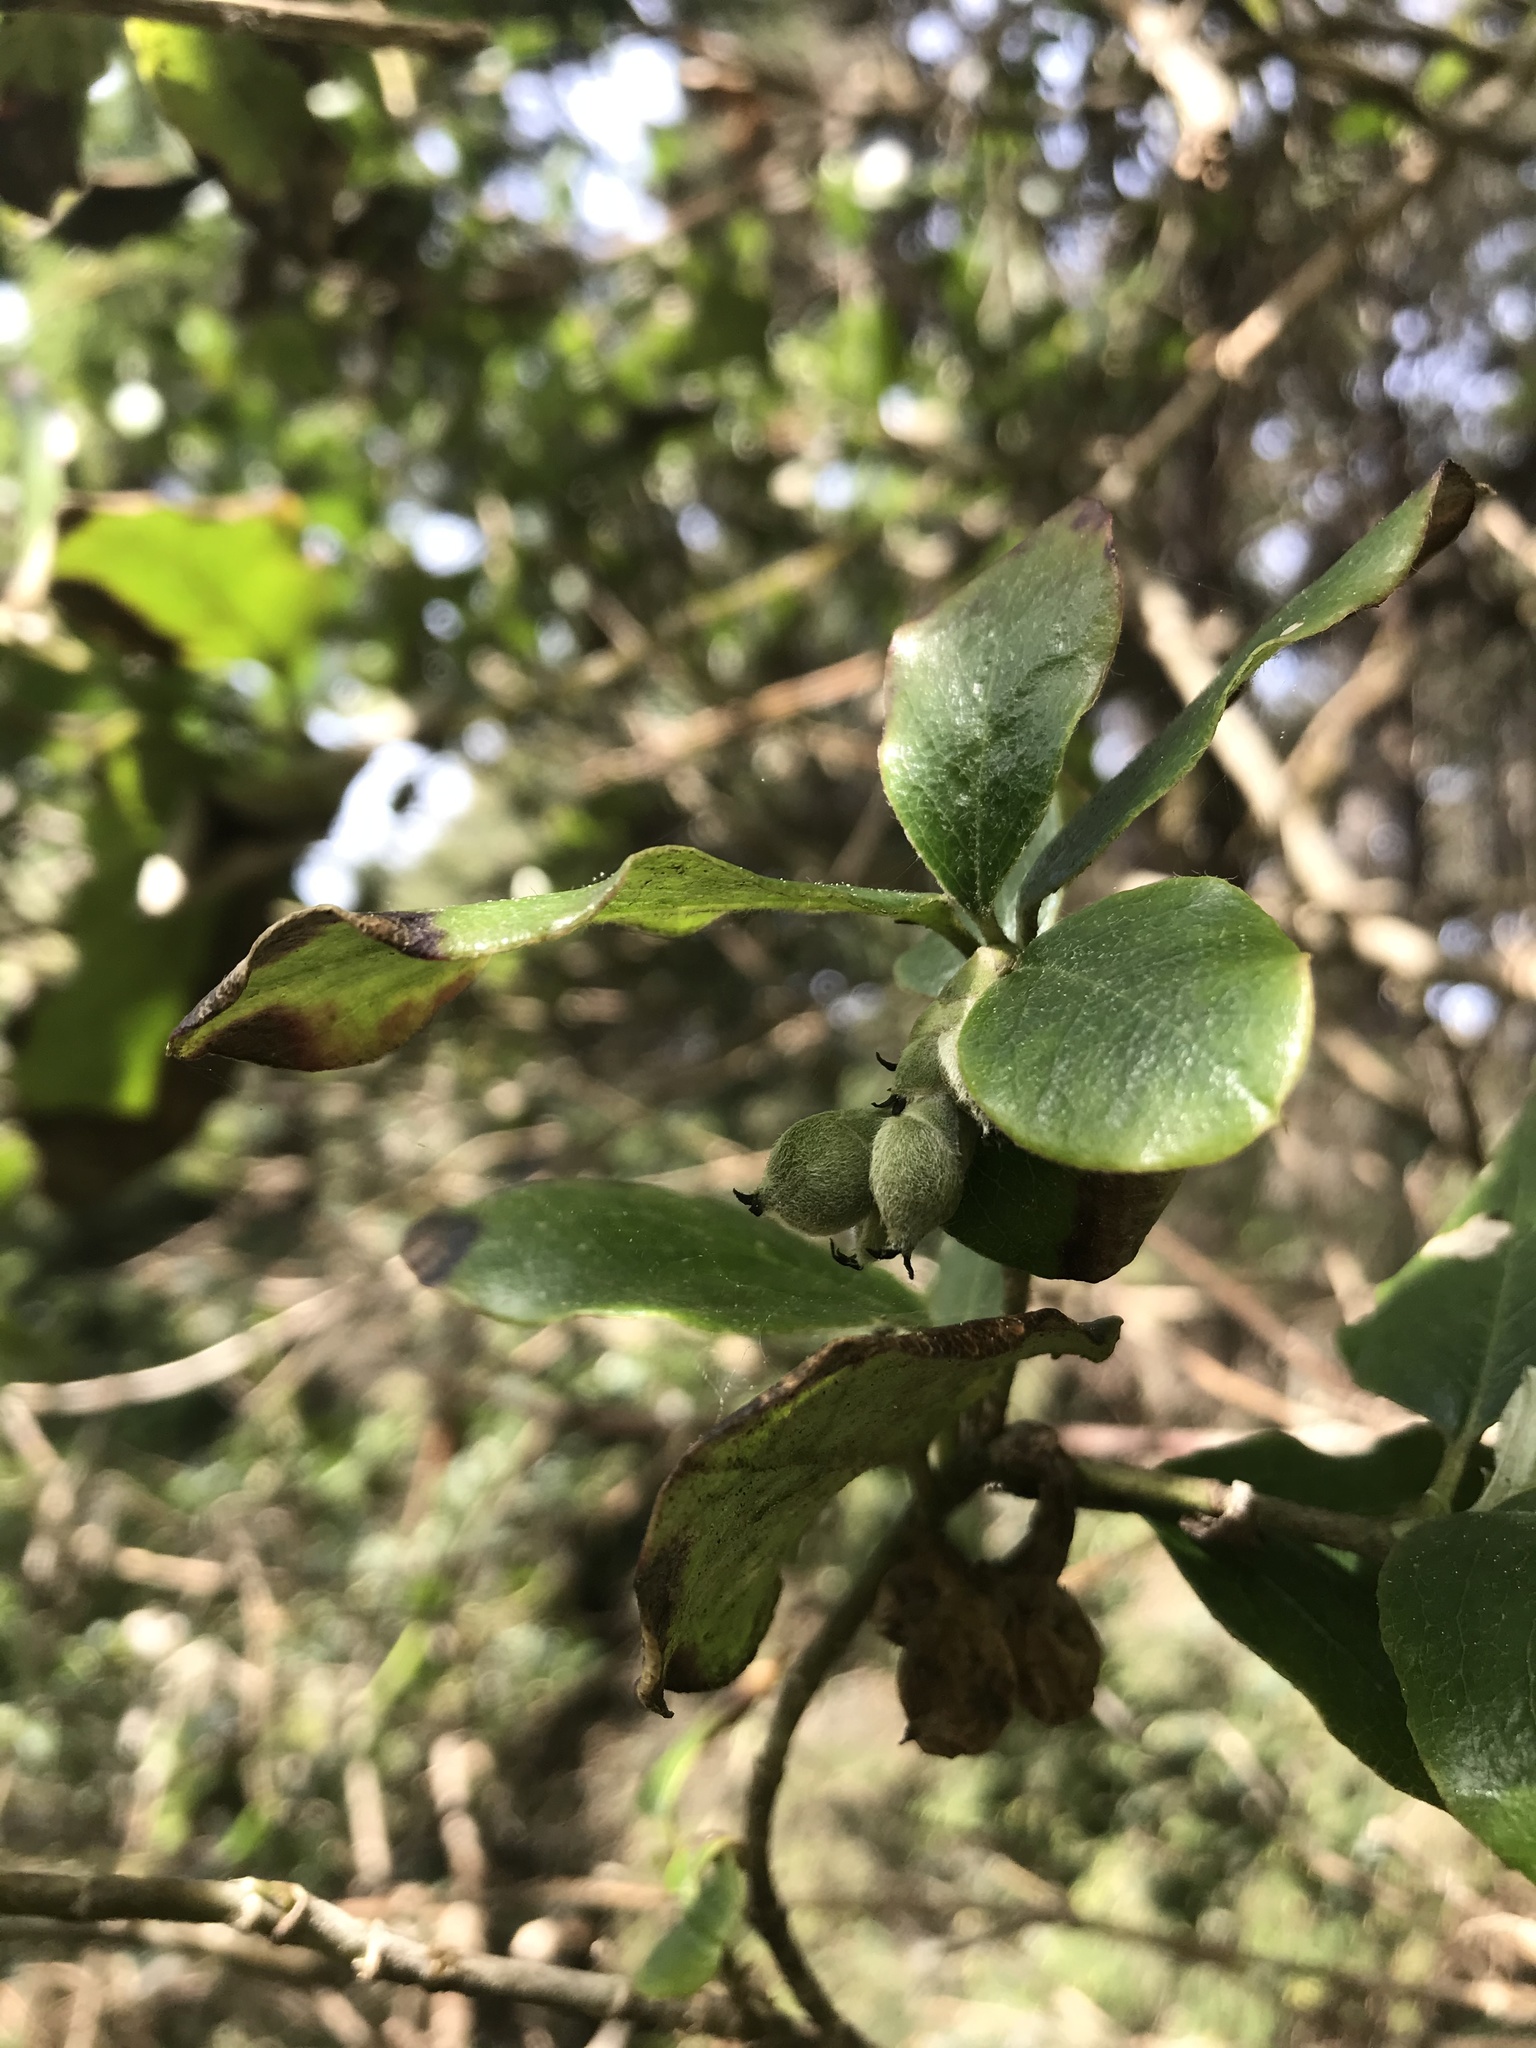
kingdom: Plantae
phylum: Tracheophyta
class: Magnoliopsida
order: Garryales
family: Garryaceae
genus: Garrya
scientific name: Garrya elliptica
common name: Silk-tassel
